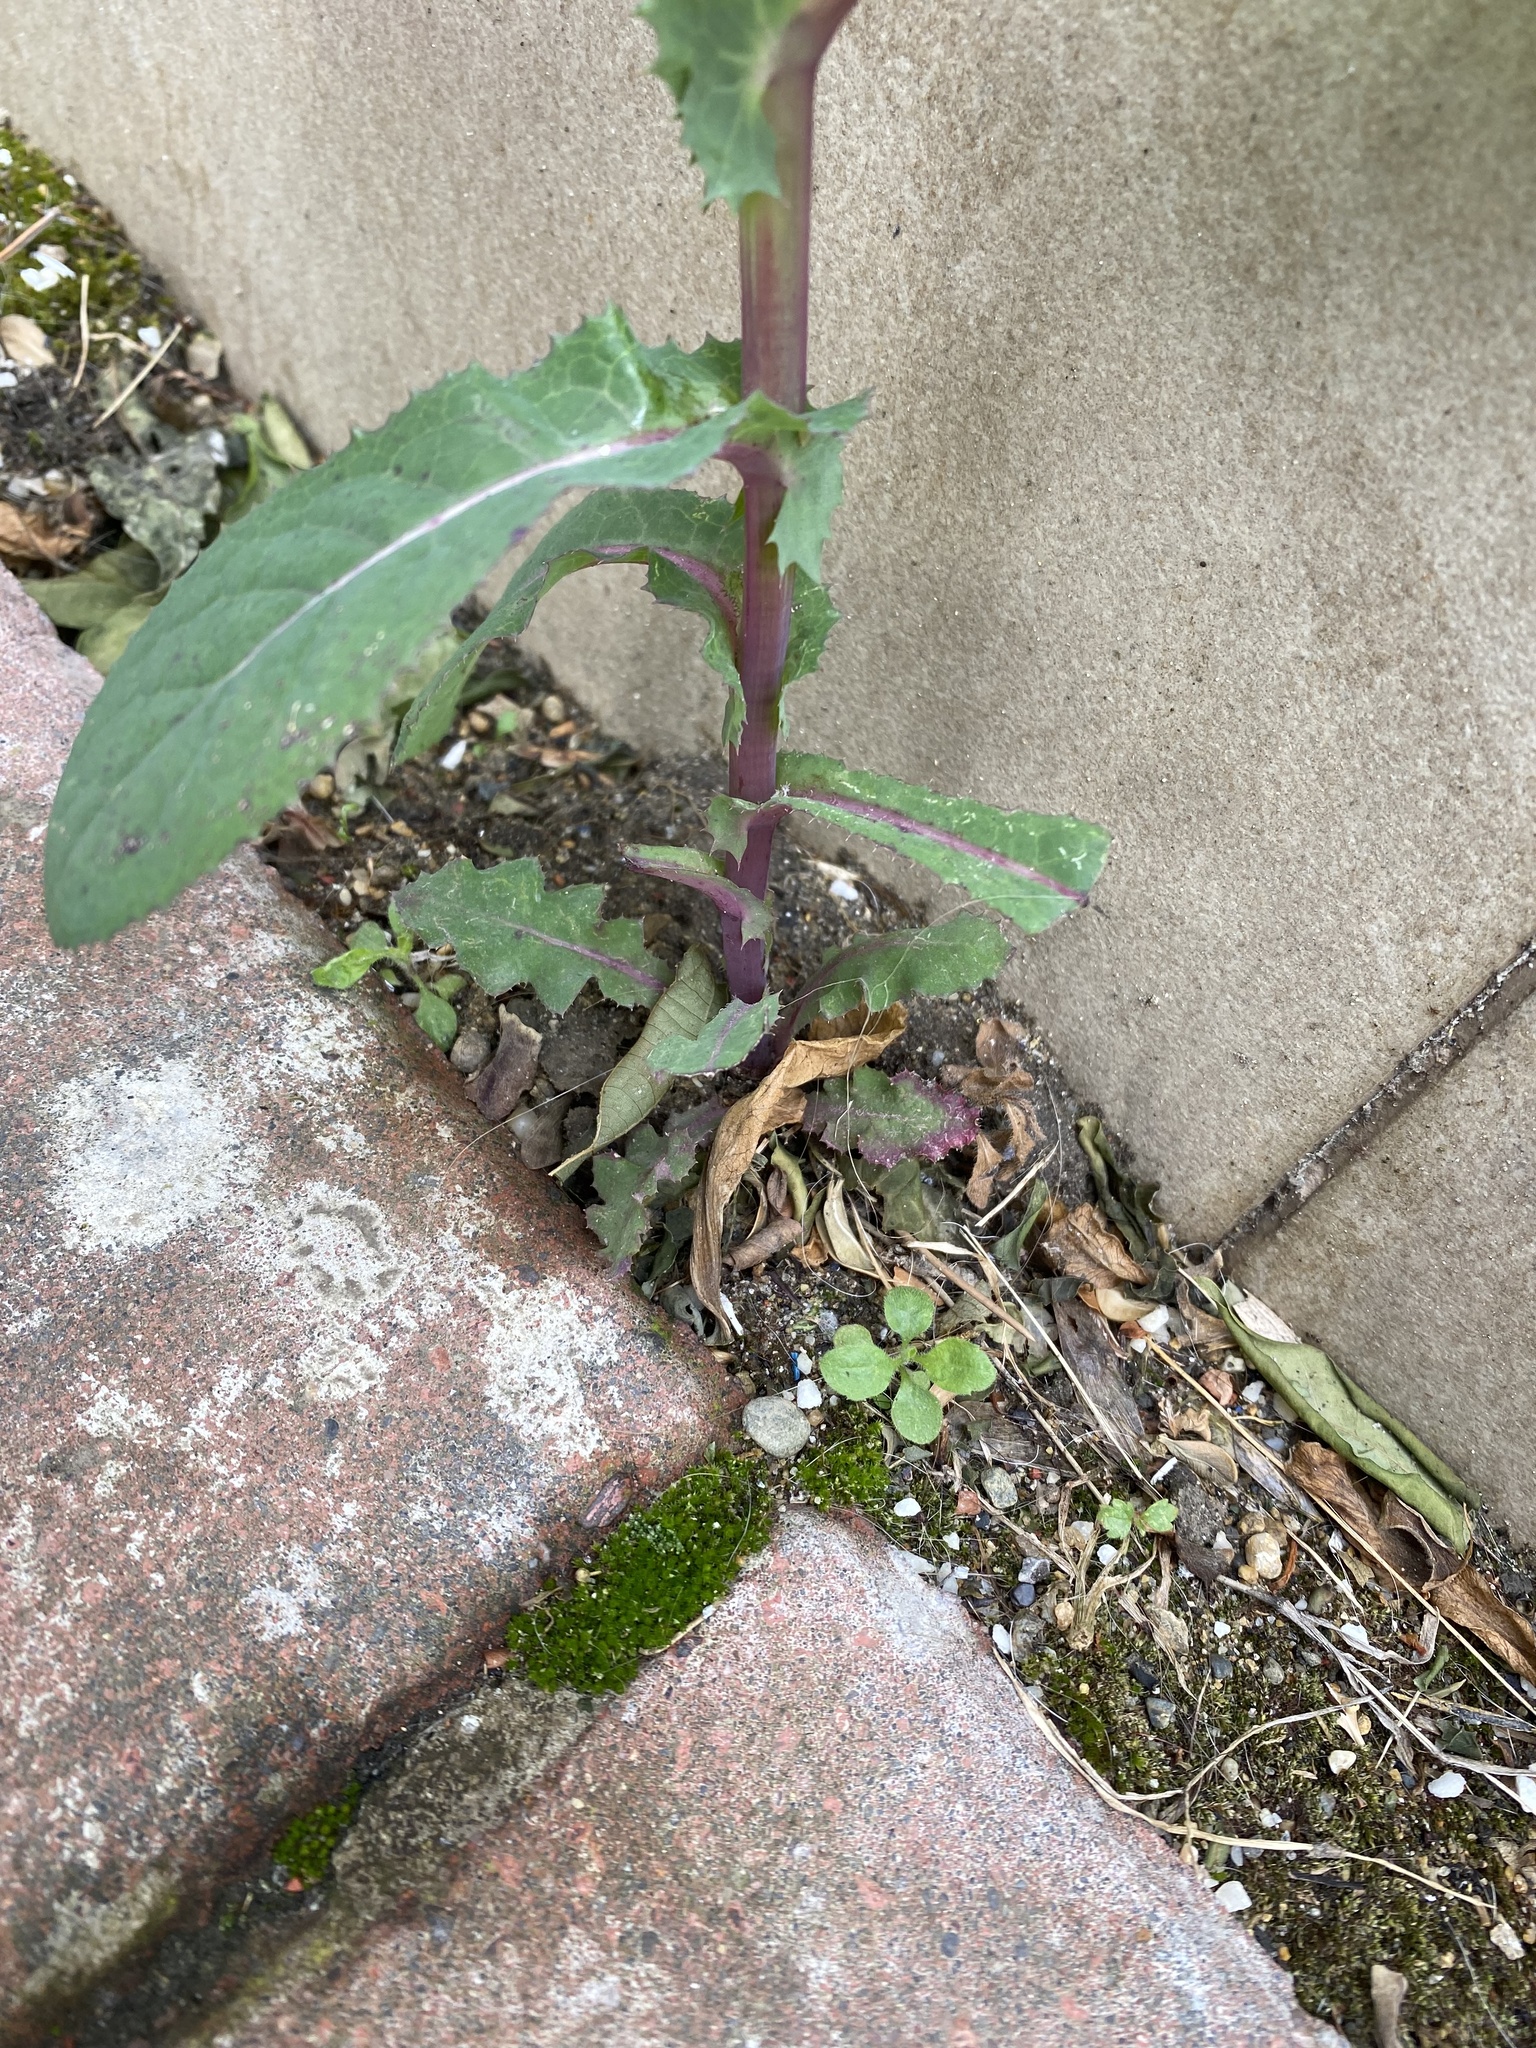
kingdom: Plantae
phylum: Tracheophyta
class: Magnoliopsida
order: Asterales
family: Asteraceae
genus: Sonchus
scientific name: Sonchus asper
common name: Prickly sow-thistle
